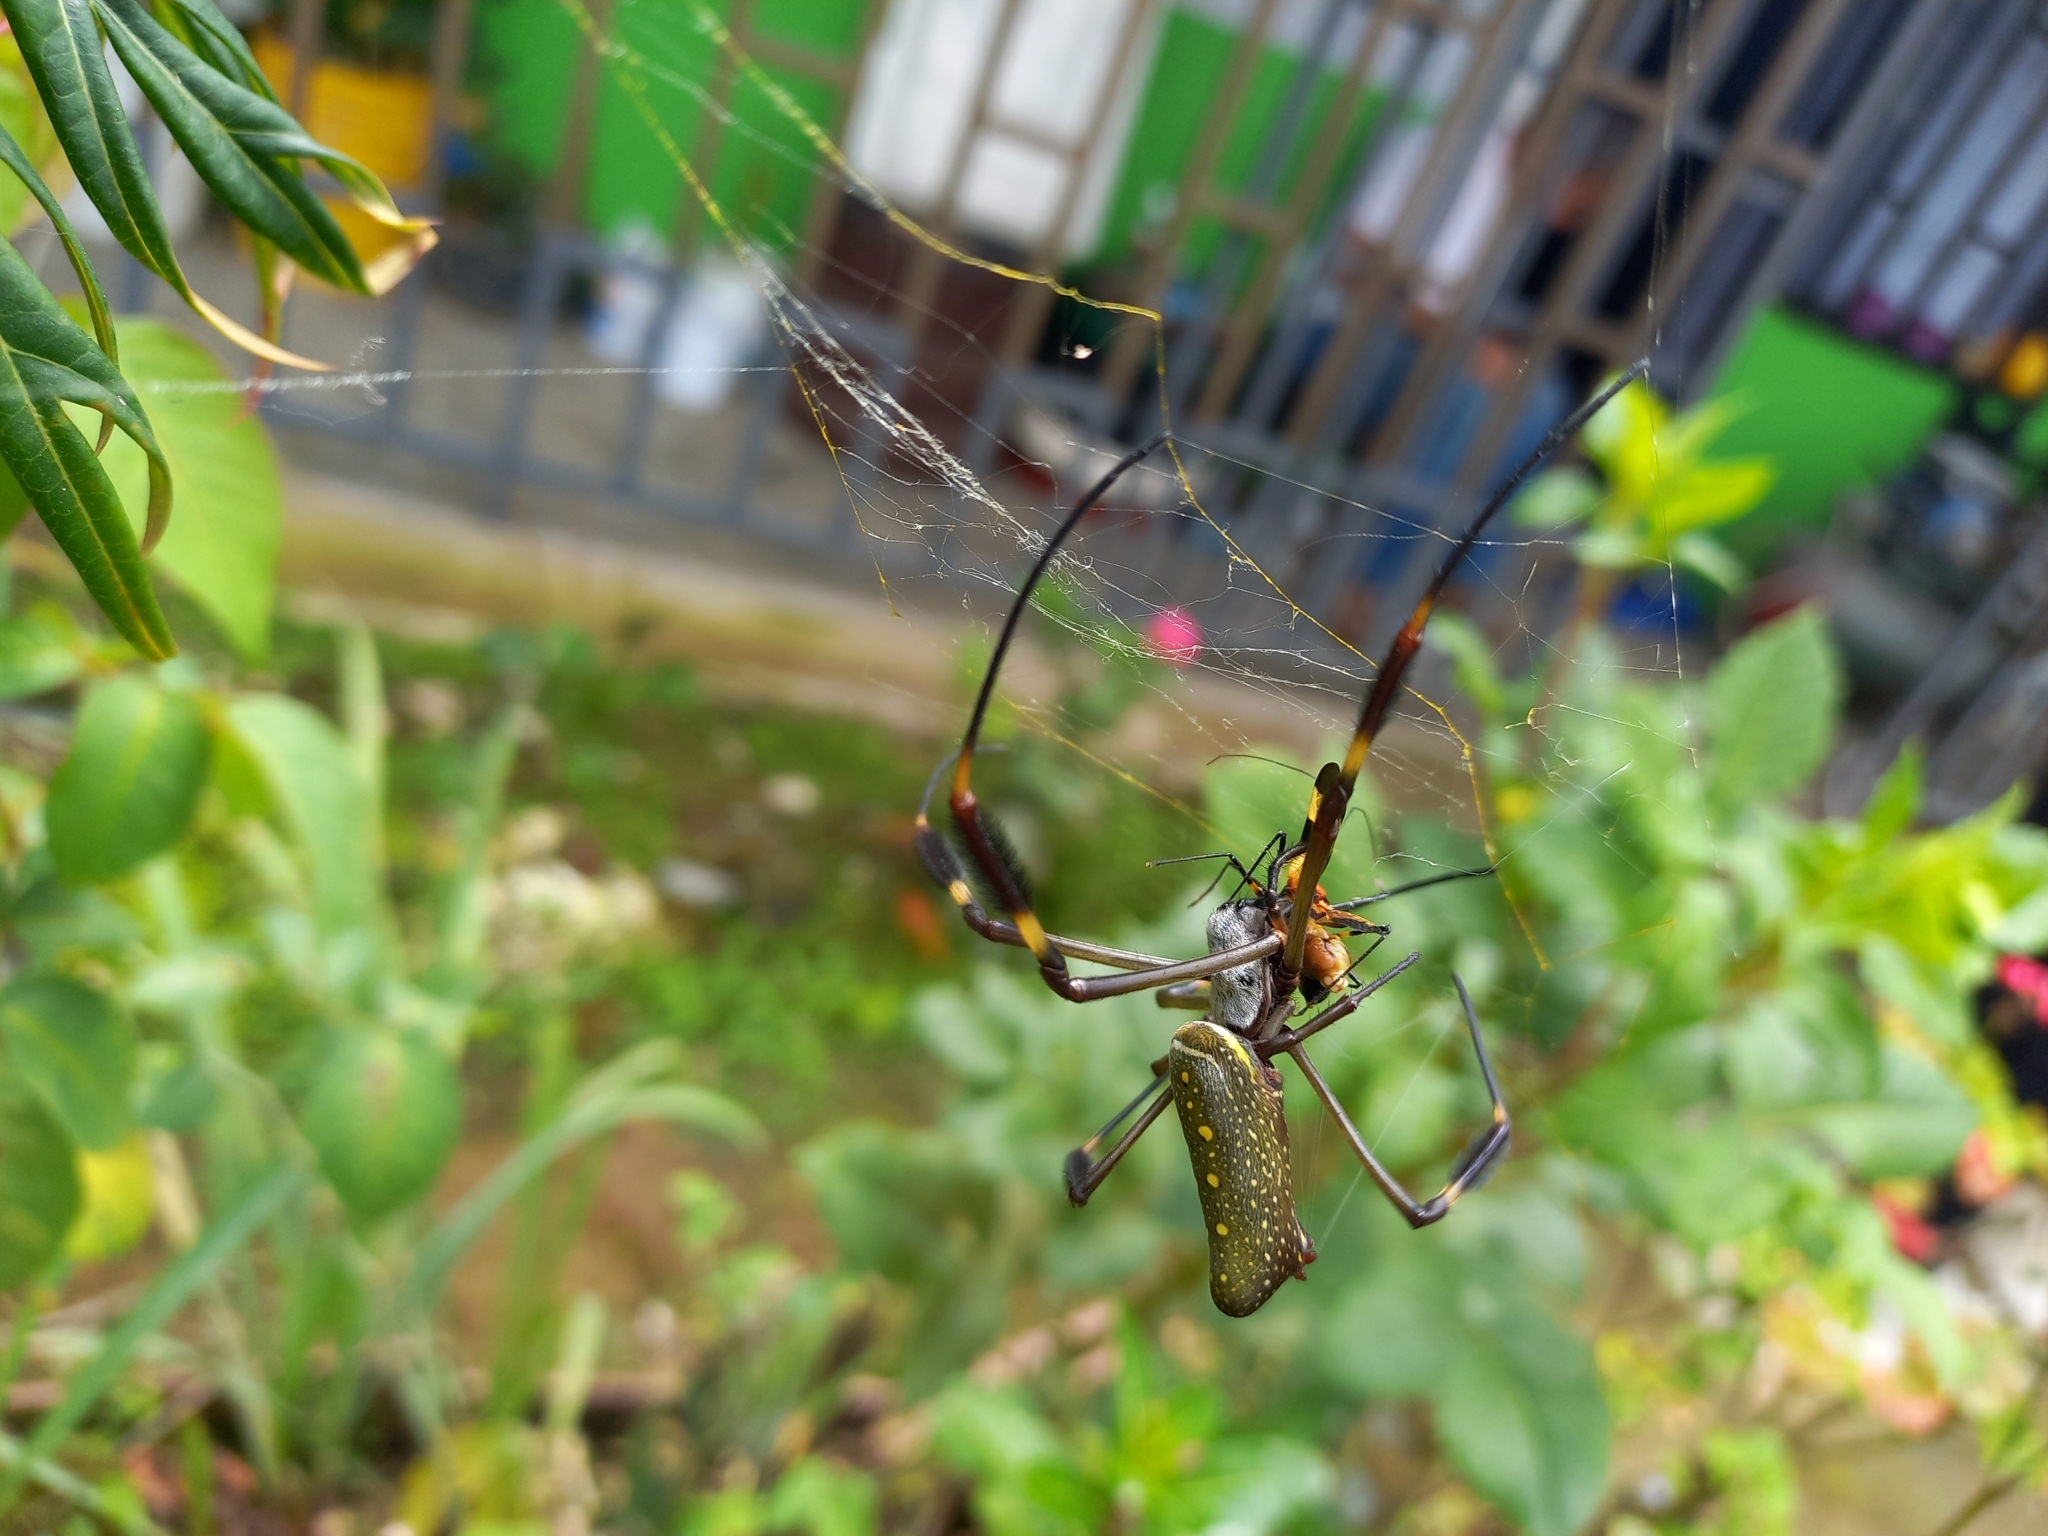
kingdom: Animalia
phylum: Arthropoda
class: Arachnida
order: Araneae
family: Araneidae
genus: Trichonephila
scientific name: Trichonephila clavipes
